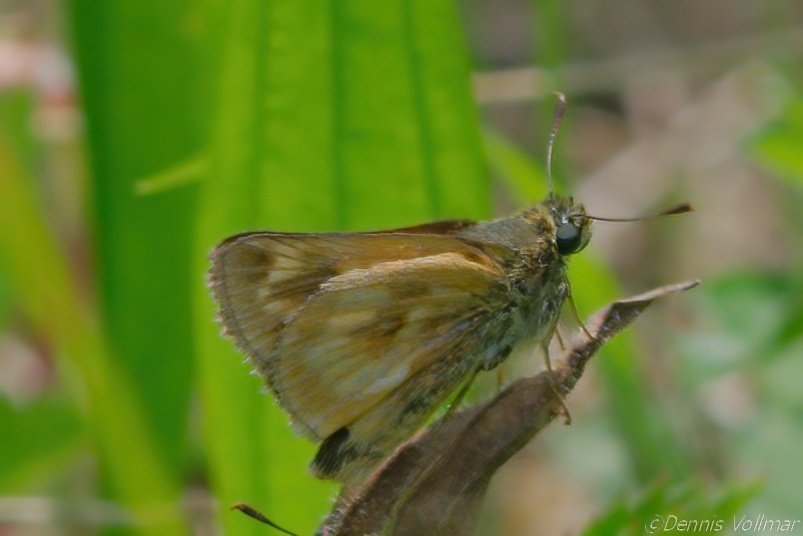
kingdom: Animalia
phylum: Arthropoda
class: Insecta
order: Lepidoptera
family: Hesperiidae
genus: Polites
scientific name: Polites mystic
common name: Long dash
